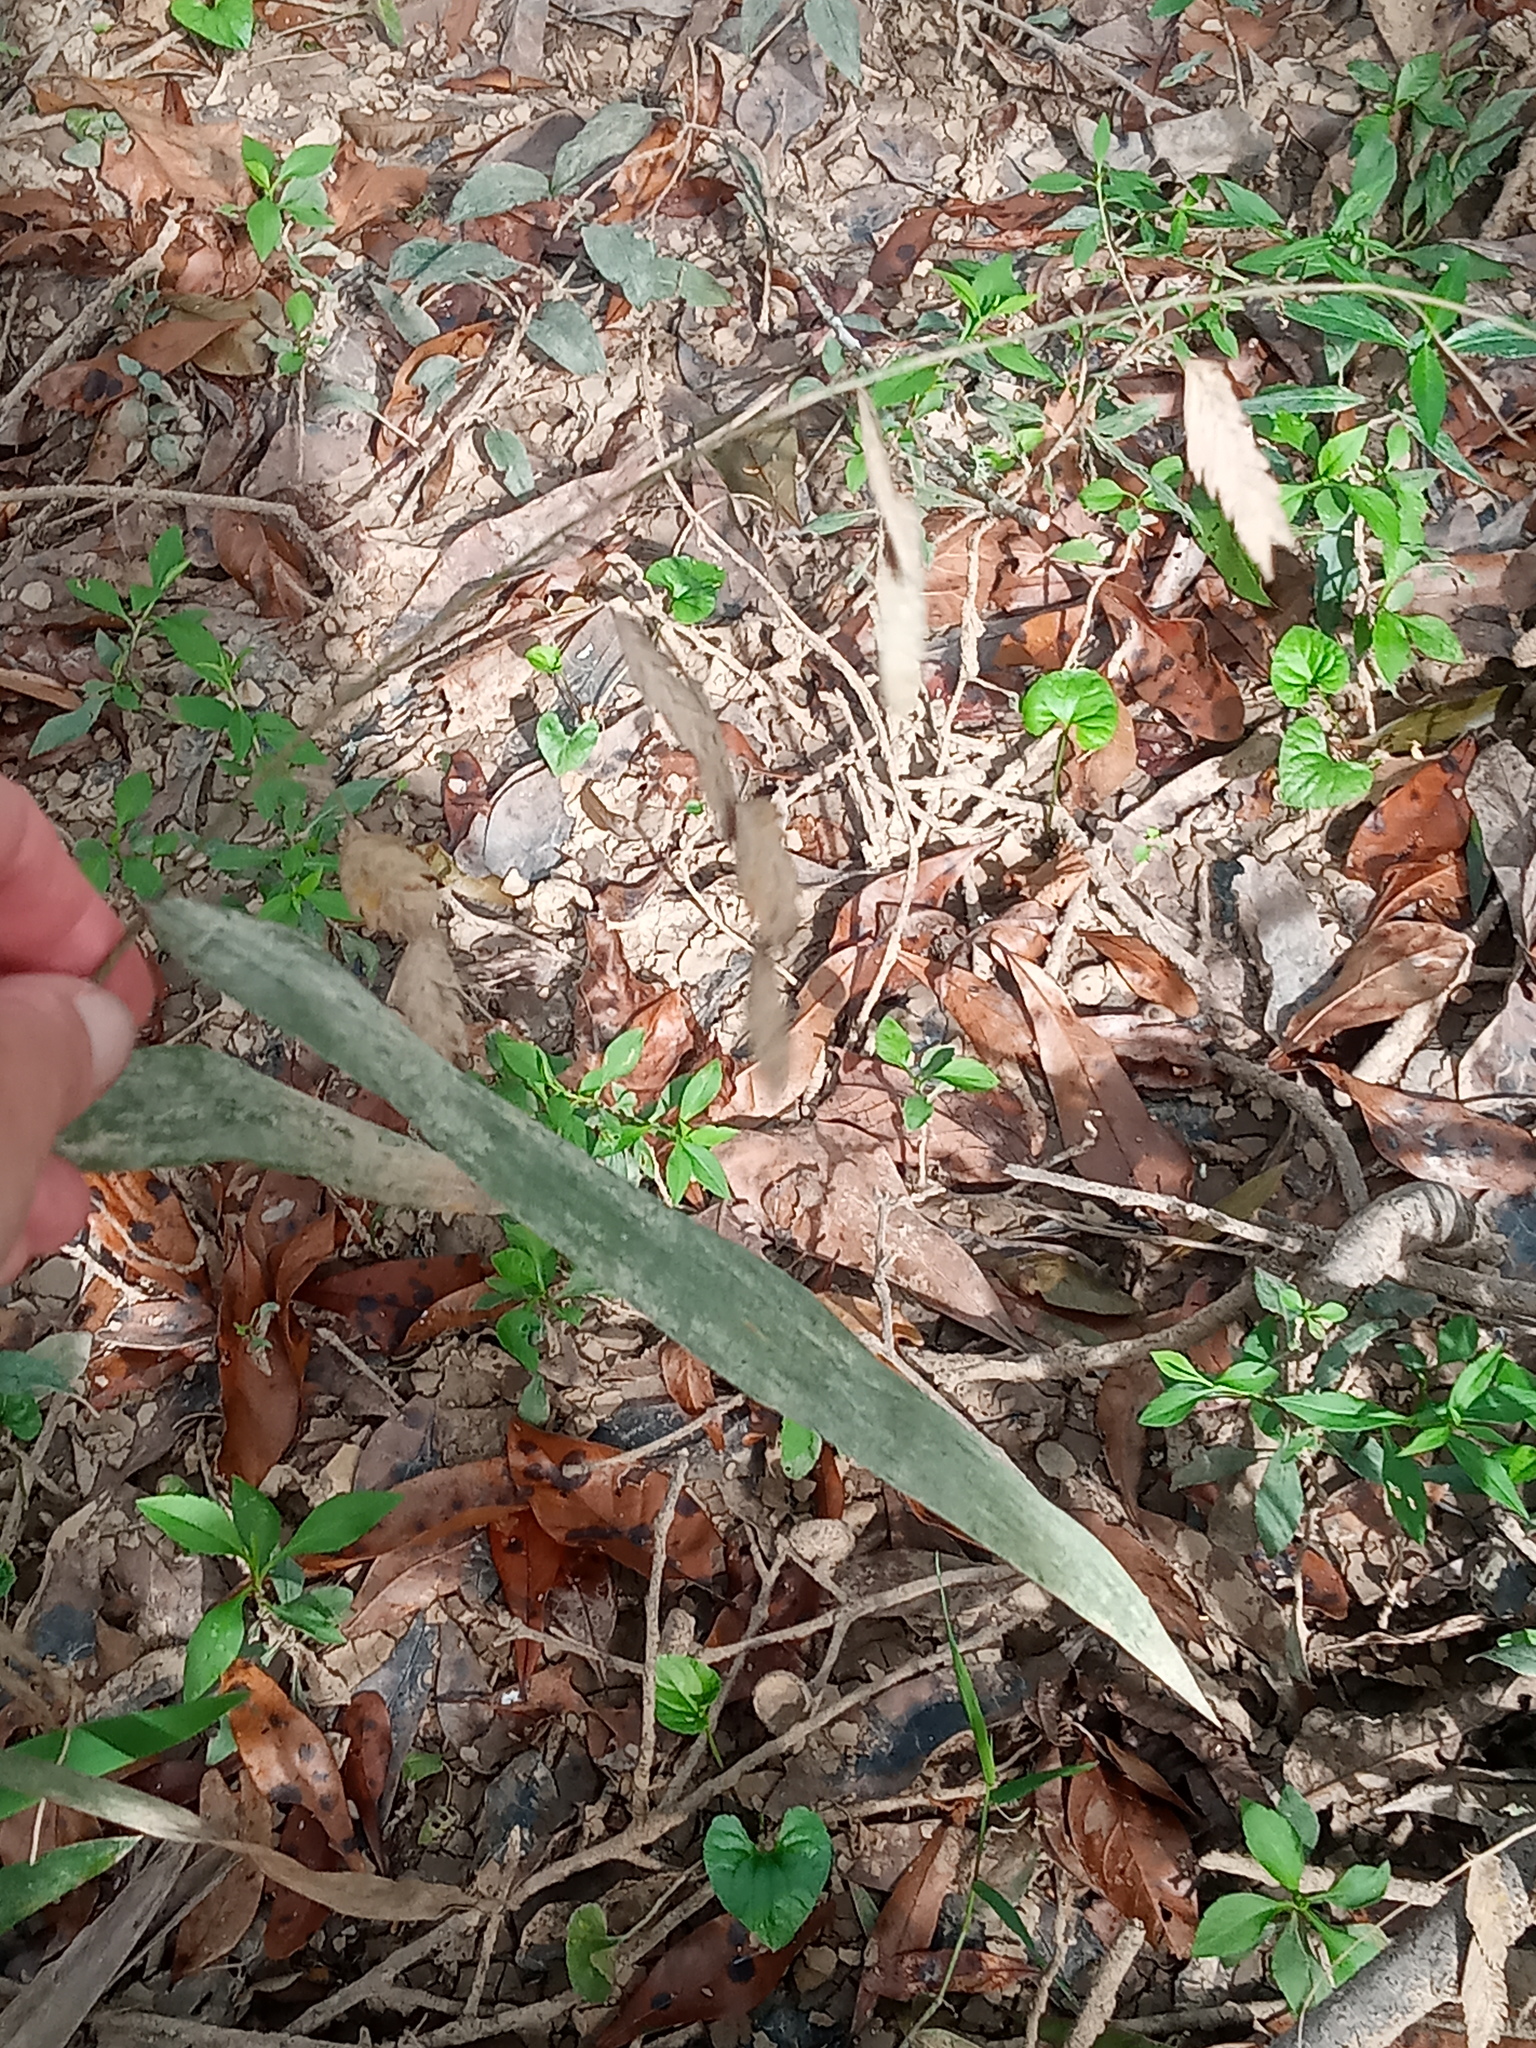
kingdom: Plantae
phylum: Tracheophyta
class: Liliopsida
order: Poales
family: Poaceae
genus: Chasmanthium
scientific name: Chasmanthium latifolium
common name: Broad-leaved chasmanthium
